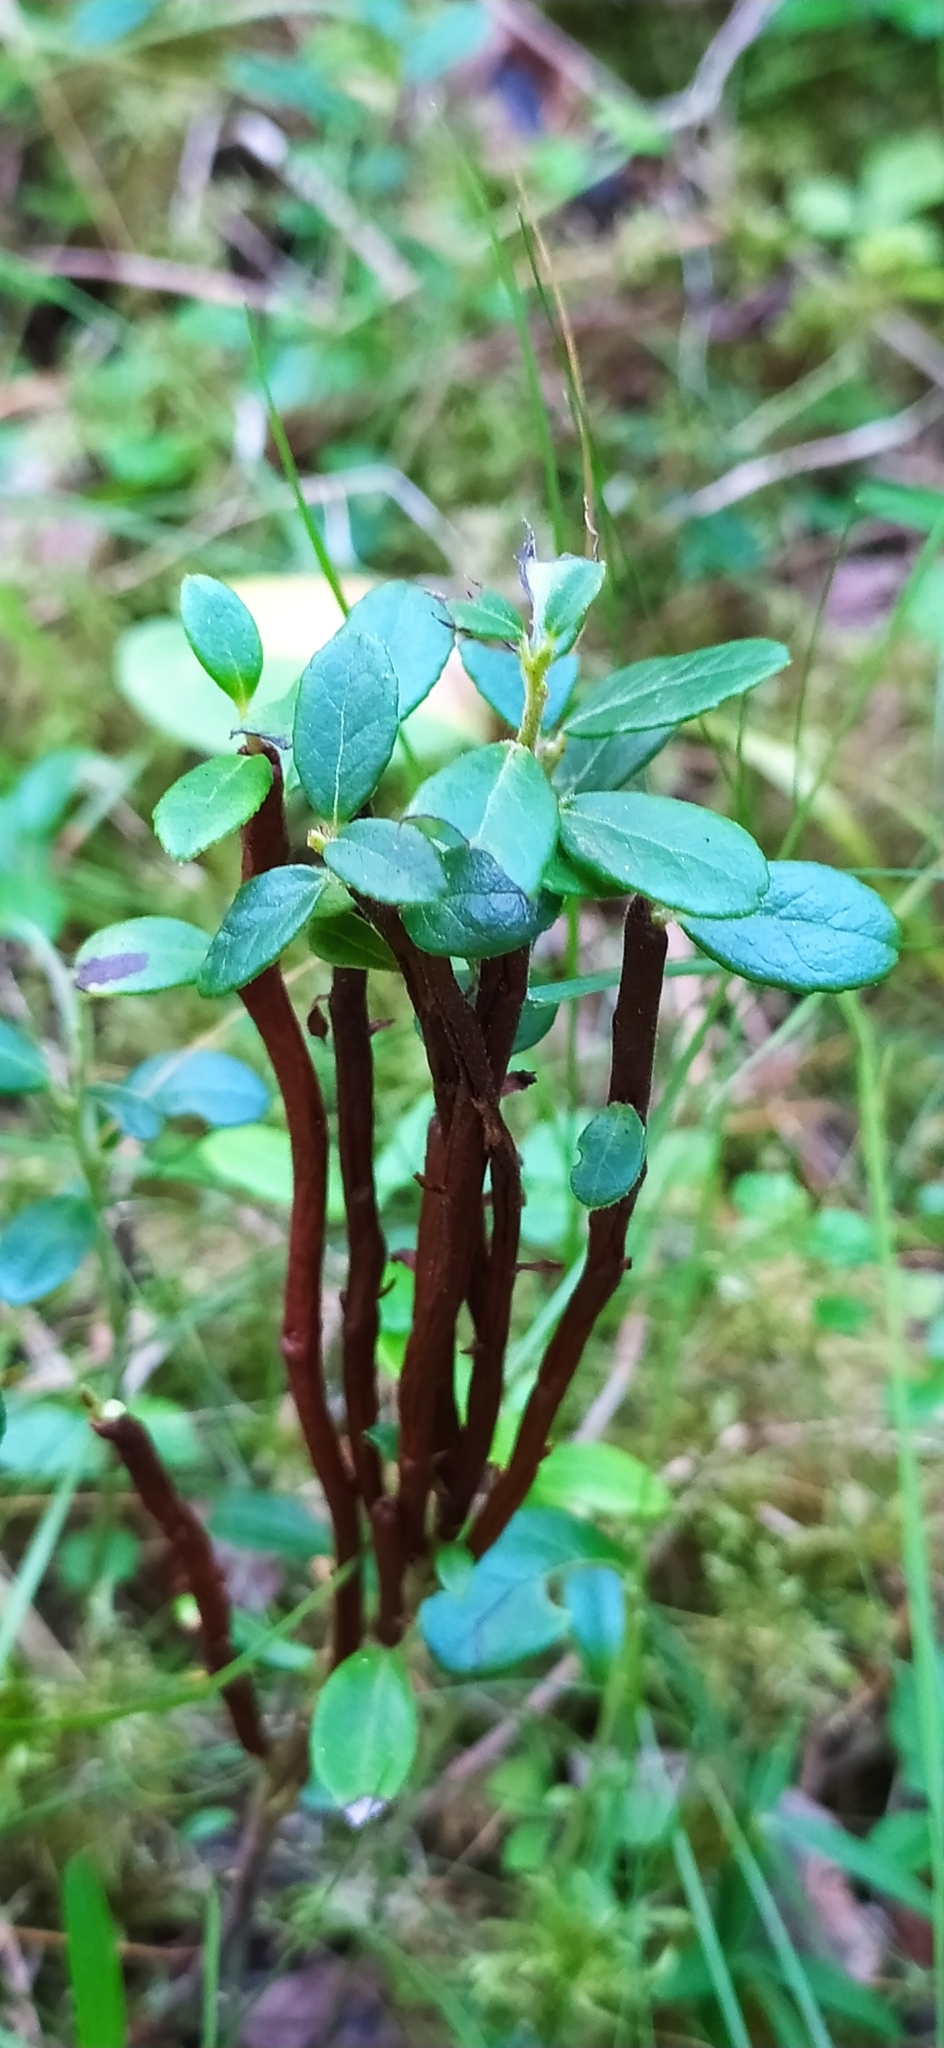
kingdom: Fungi
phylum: Basidiomycota
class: Pucciniomycetes
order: Pucciniales
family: Pucciniastraceae
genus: Calyptospora
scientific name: Calyptospora columnaris
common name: Huckleberry broom rust fungus
